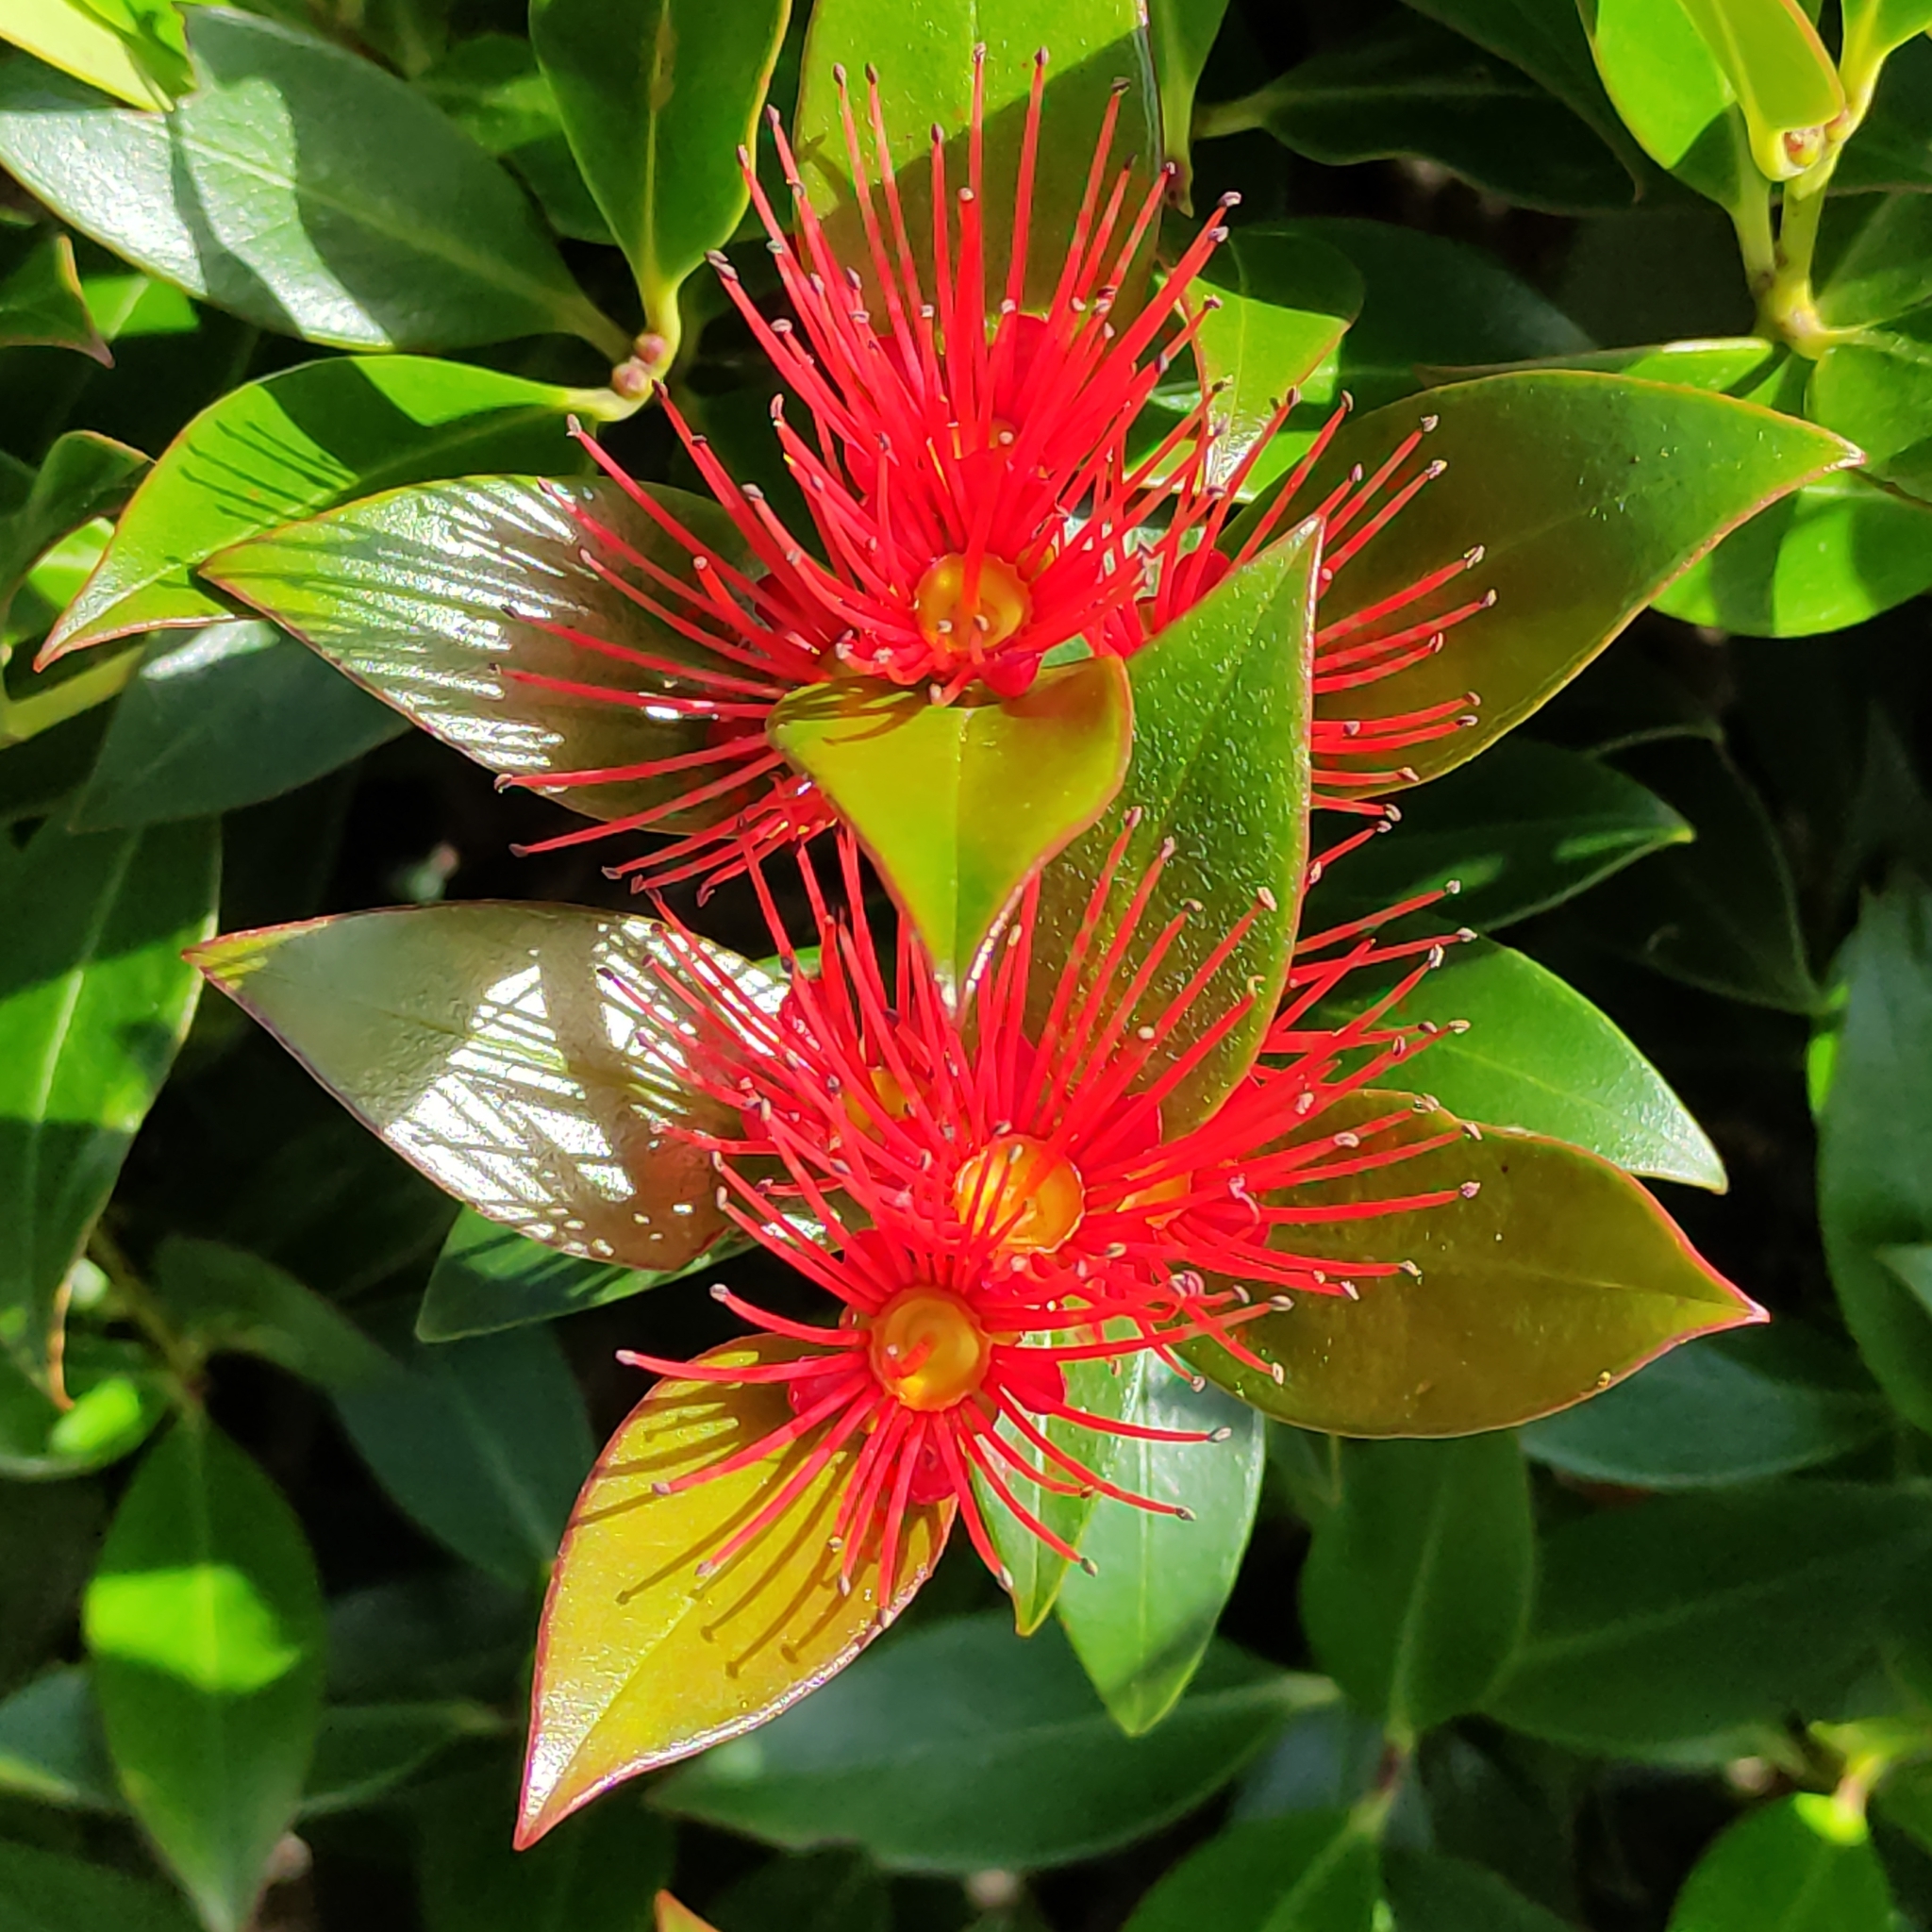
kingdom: Plantae
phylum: Tracheophyta
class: Magnoliopsida
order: Myrtales
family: Myrtaceae
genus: Metrosideros
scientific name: Metrosideros umbellata
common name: Southern rata
